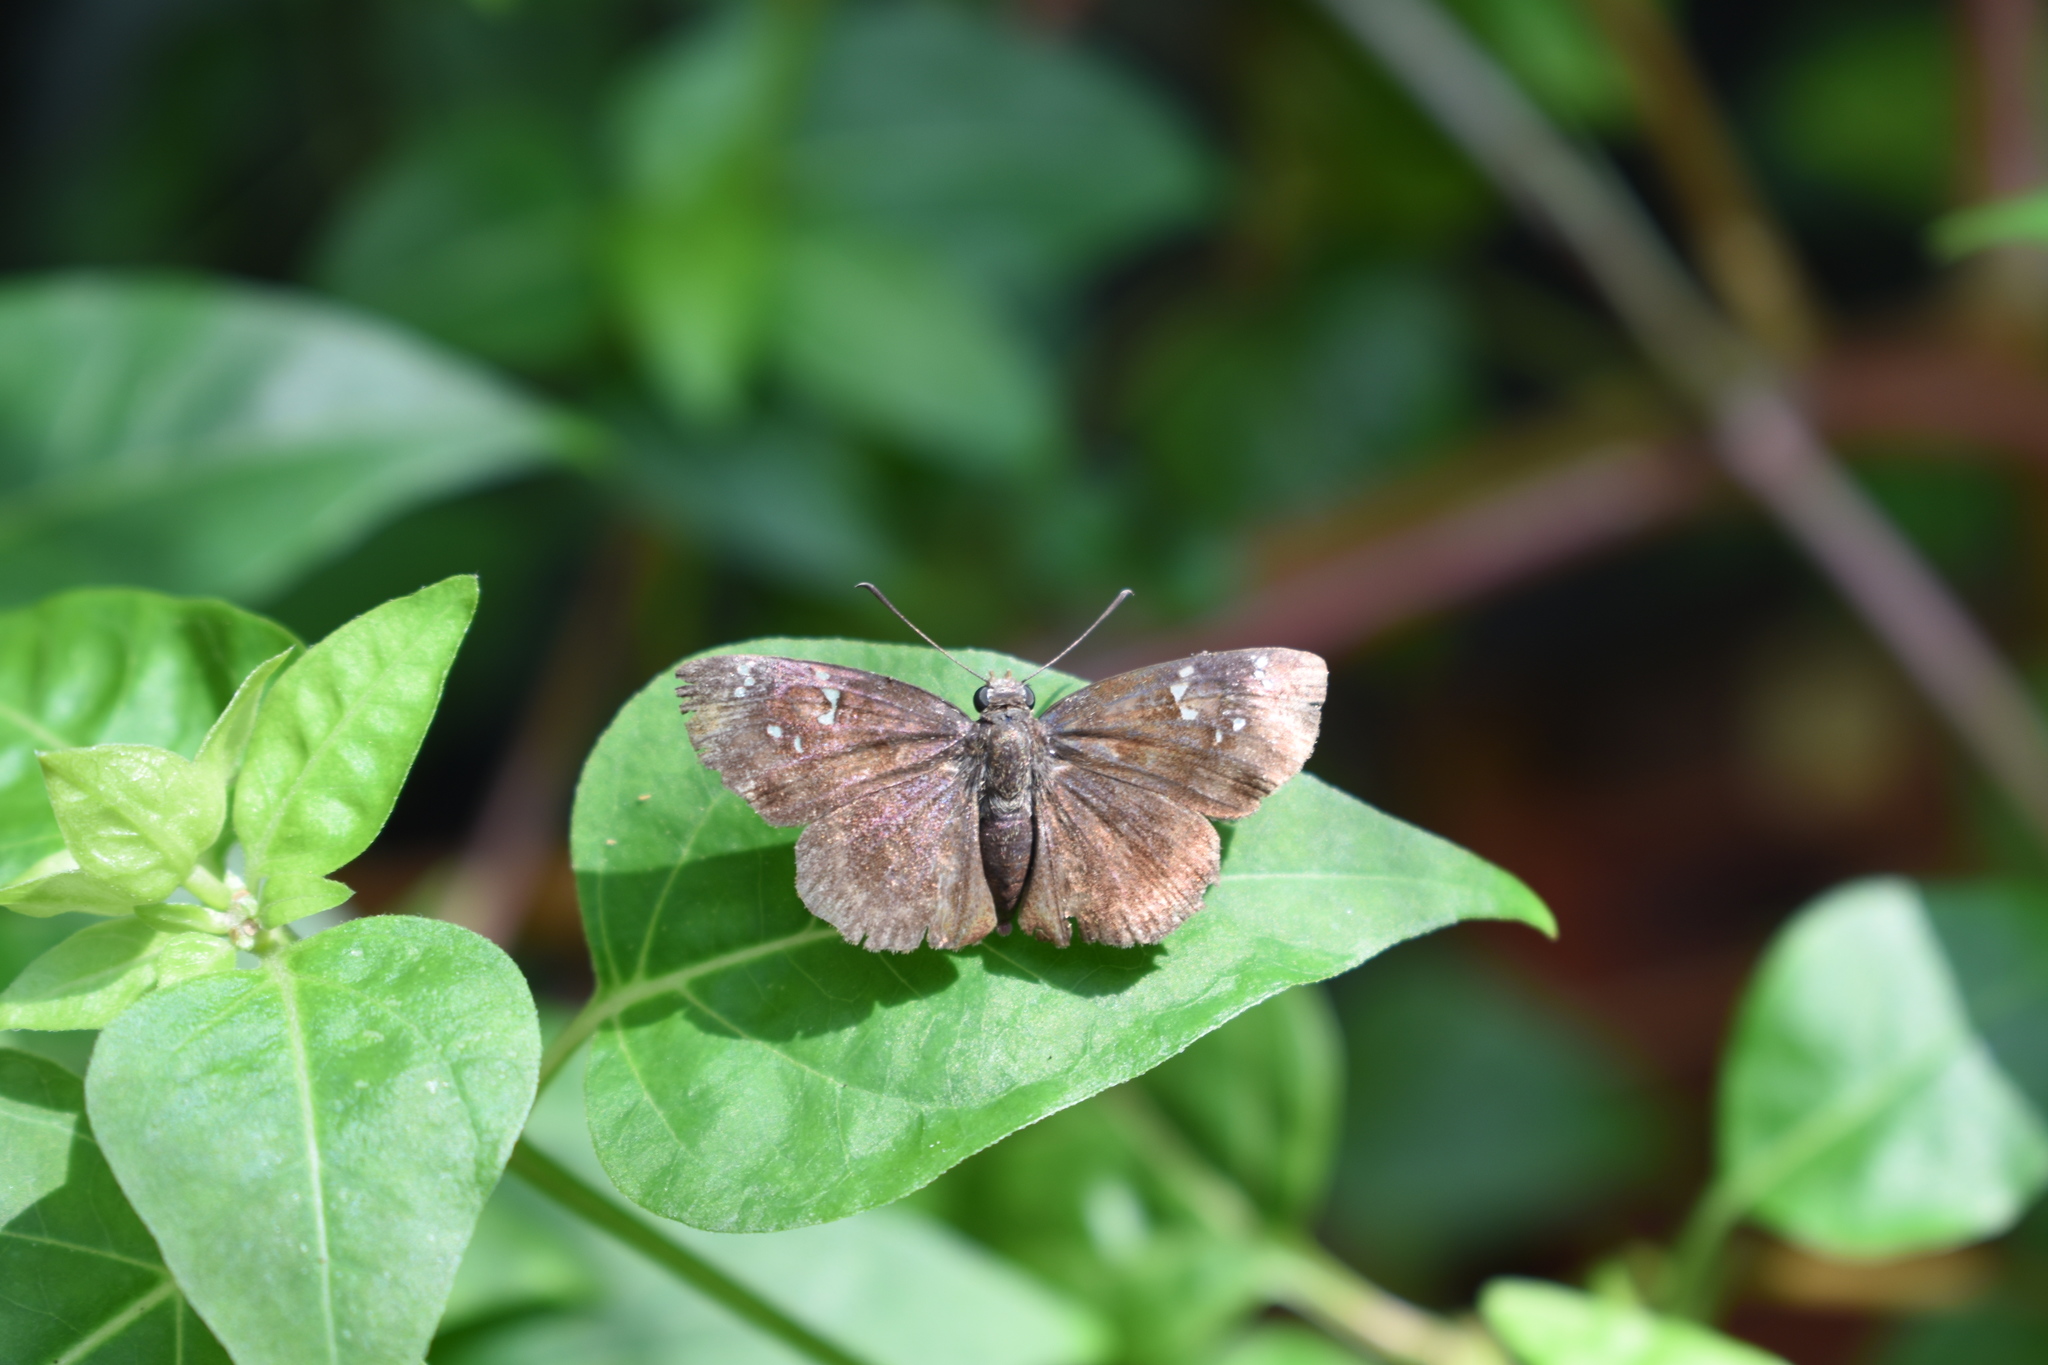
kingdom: Animalia
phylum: Arthropoda
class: Insecta
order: Lepidoptera
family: Hesperiidae
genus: Sarangesa
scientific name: Sarangesa dasahara
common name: Common small flat
